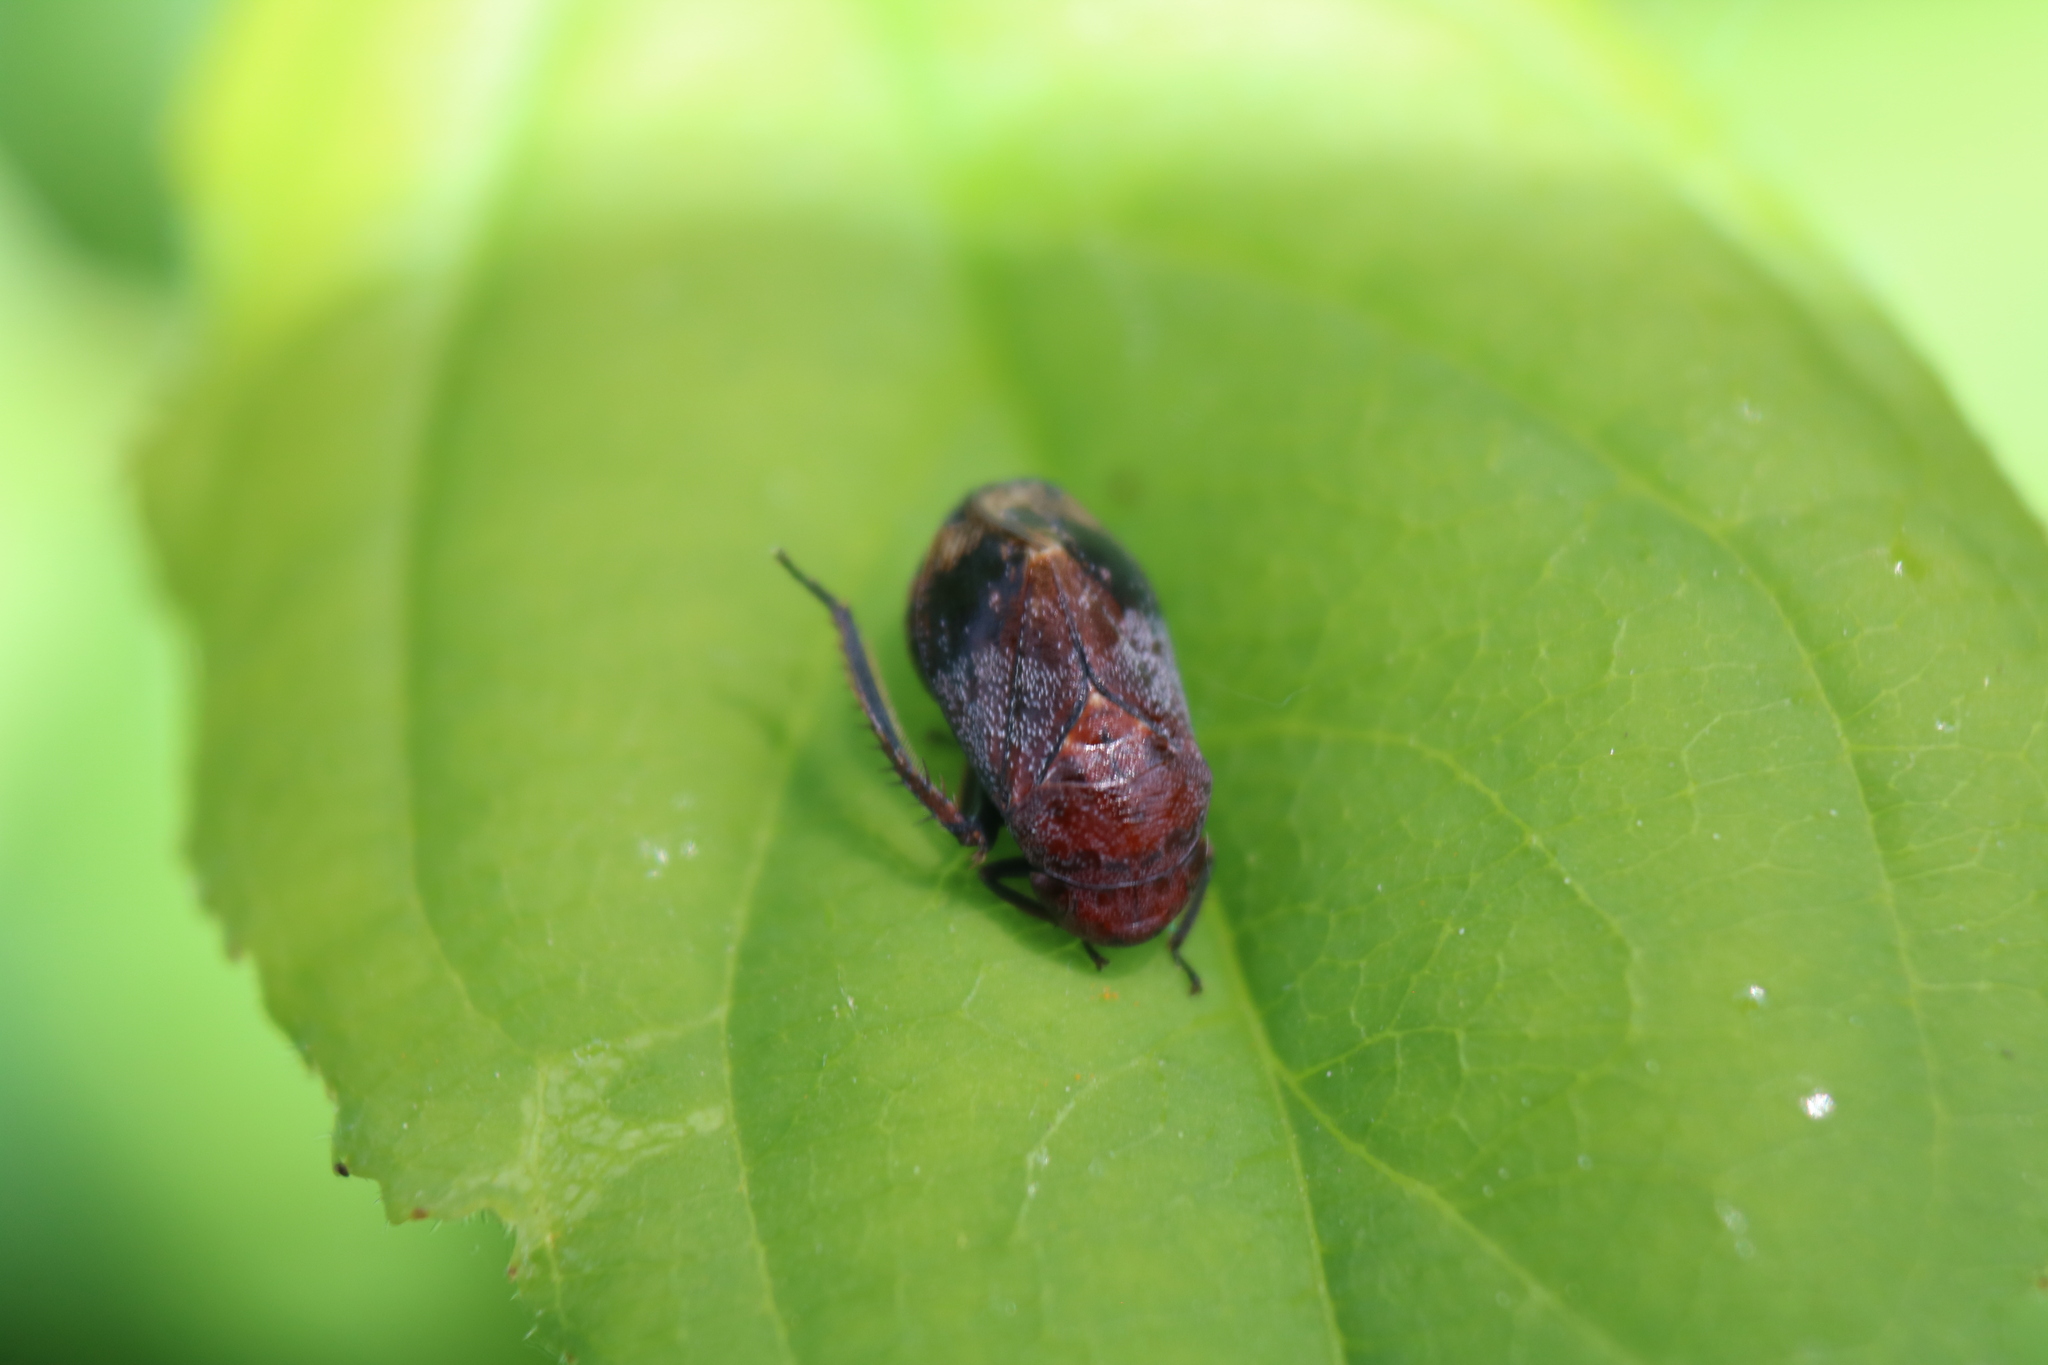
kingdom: Animalia
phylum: Arthropoda
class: Insecta
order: Hemiptera
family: Cicadellidae
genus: Penthimia
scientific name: Penthimia americana
